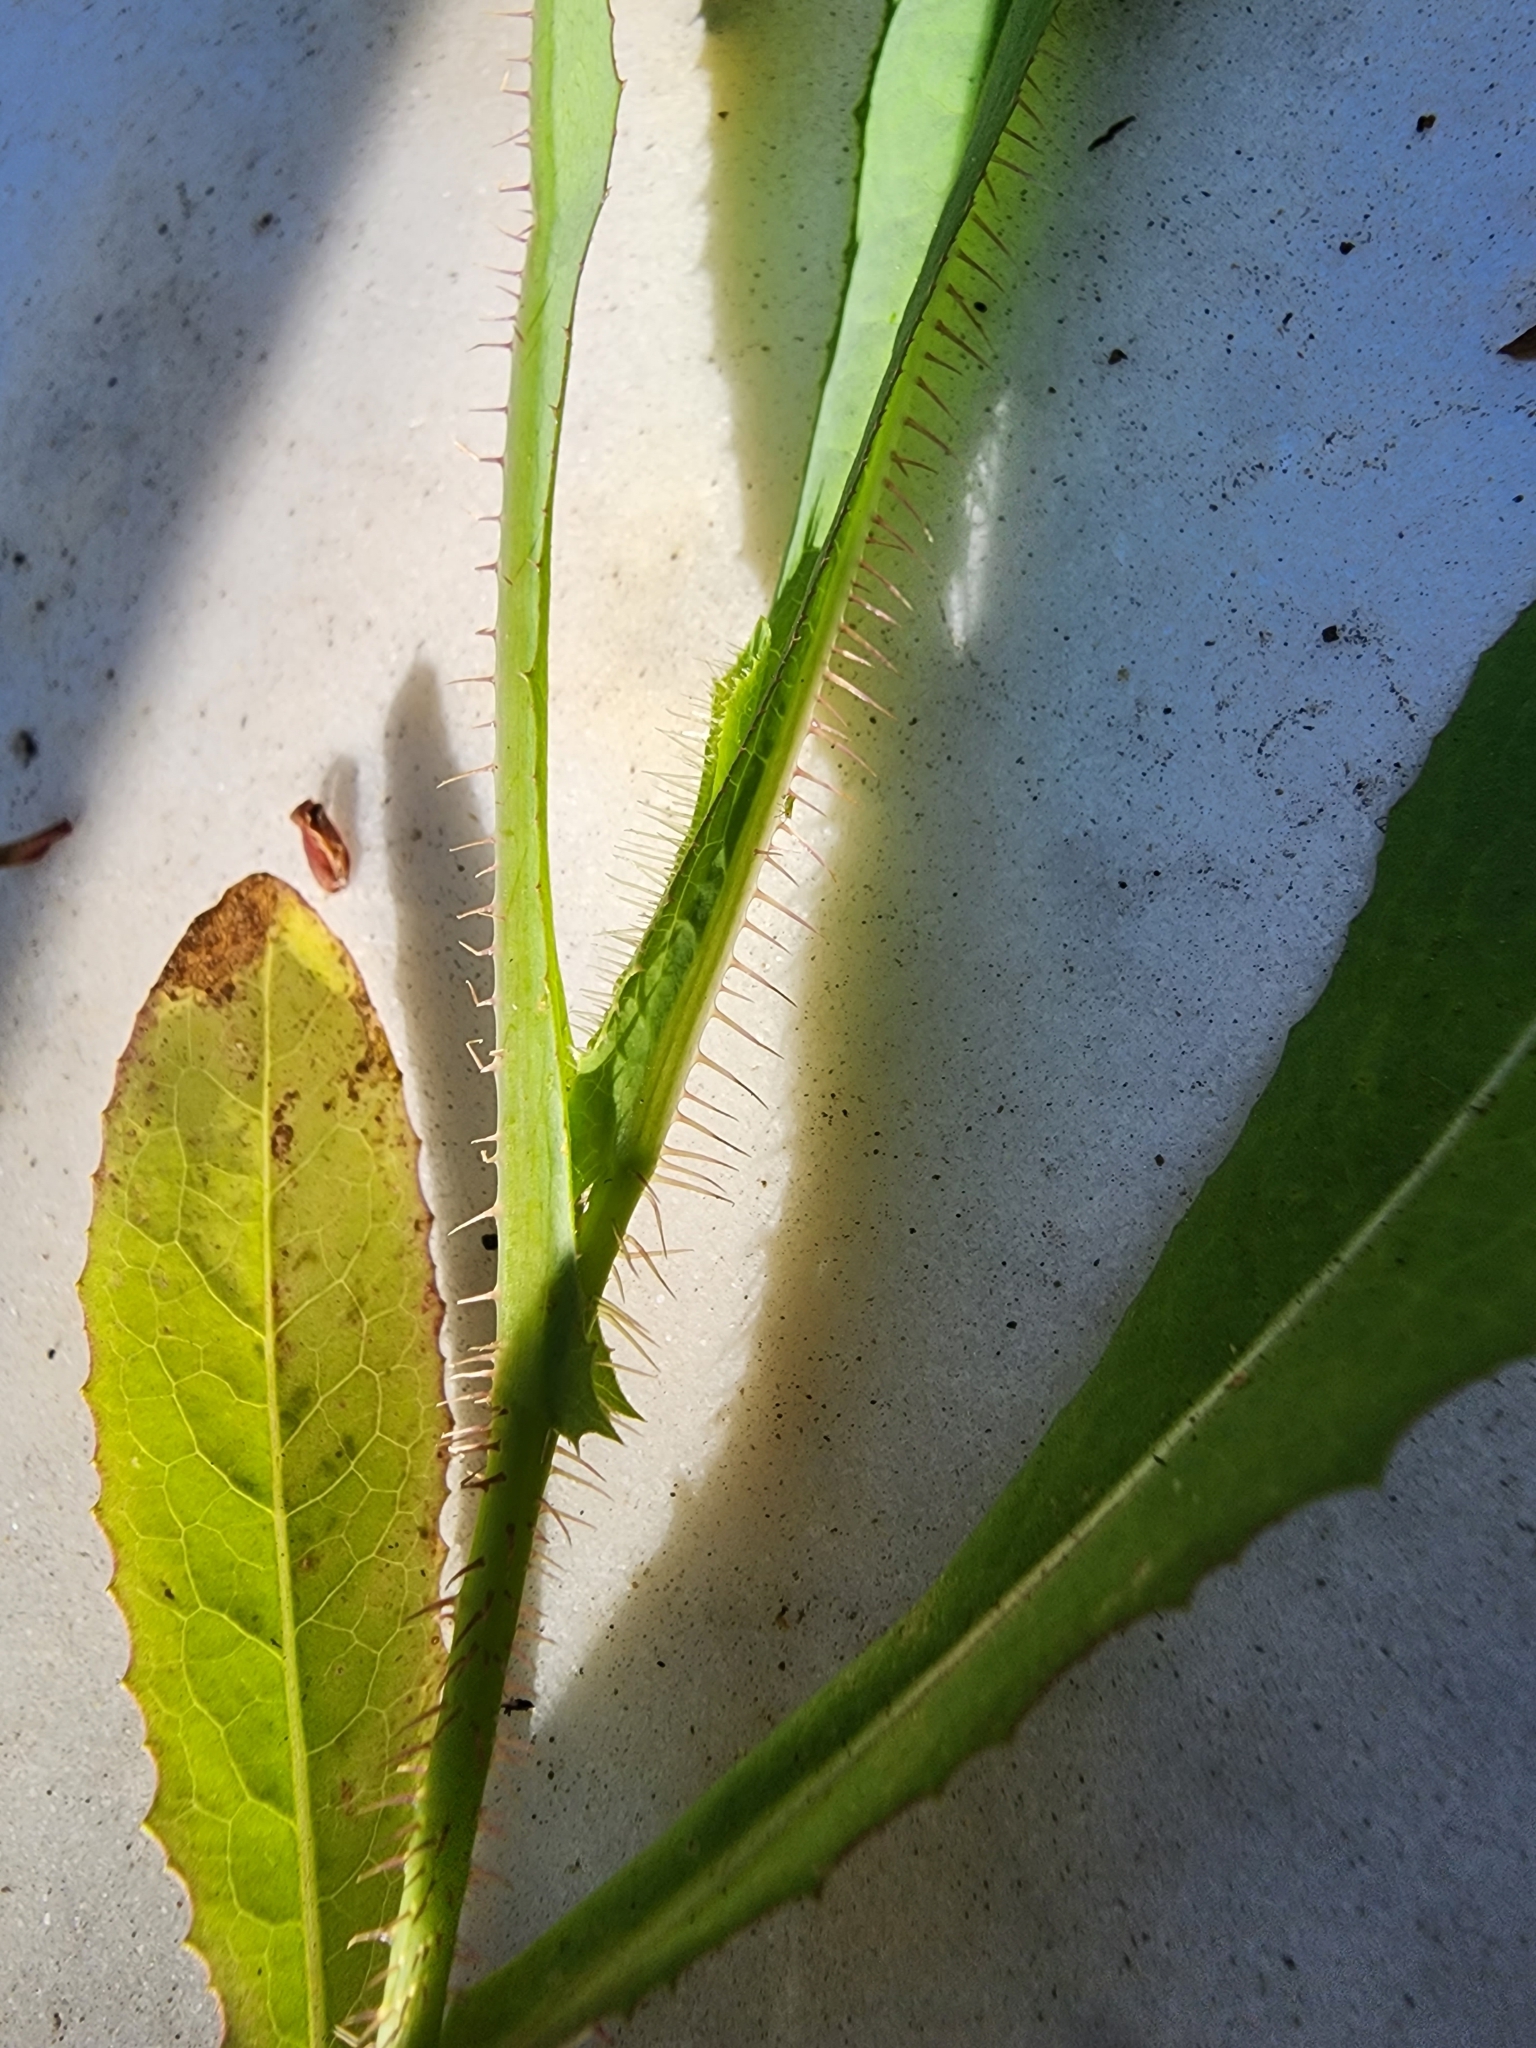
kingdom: Plantae
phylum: Tracheophyta
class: Magnoliopsida
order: Asterales
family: Asteraceae
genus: Lactuca
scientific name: Lactuca serriola
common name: Prickly lettuce
